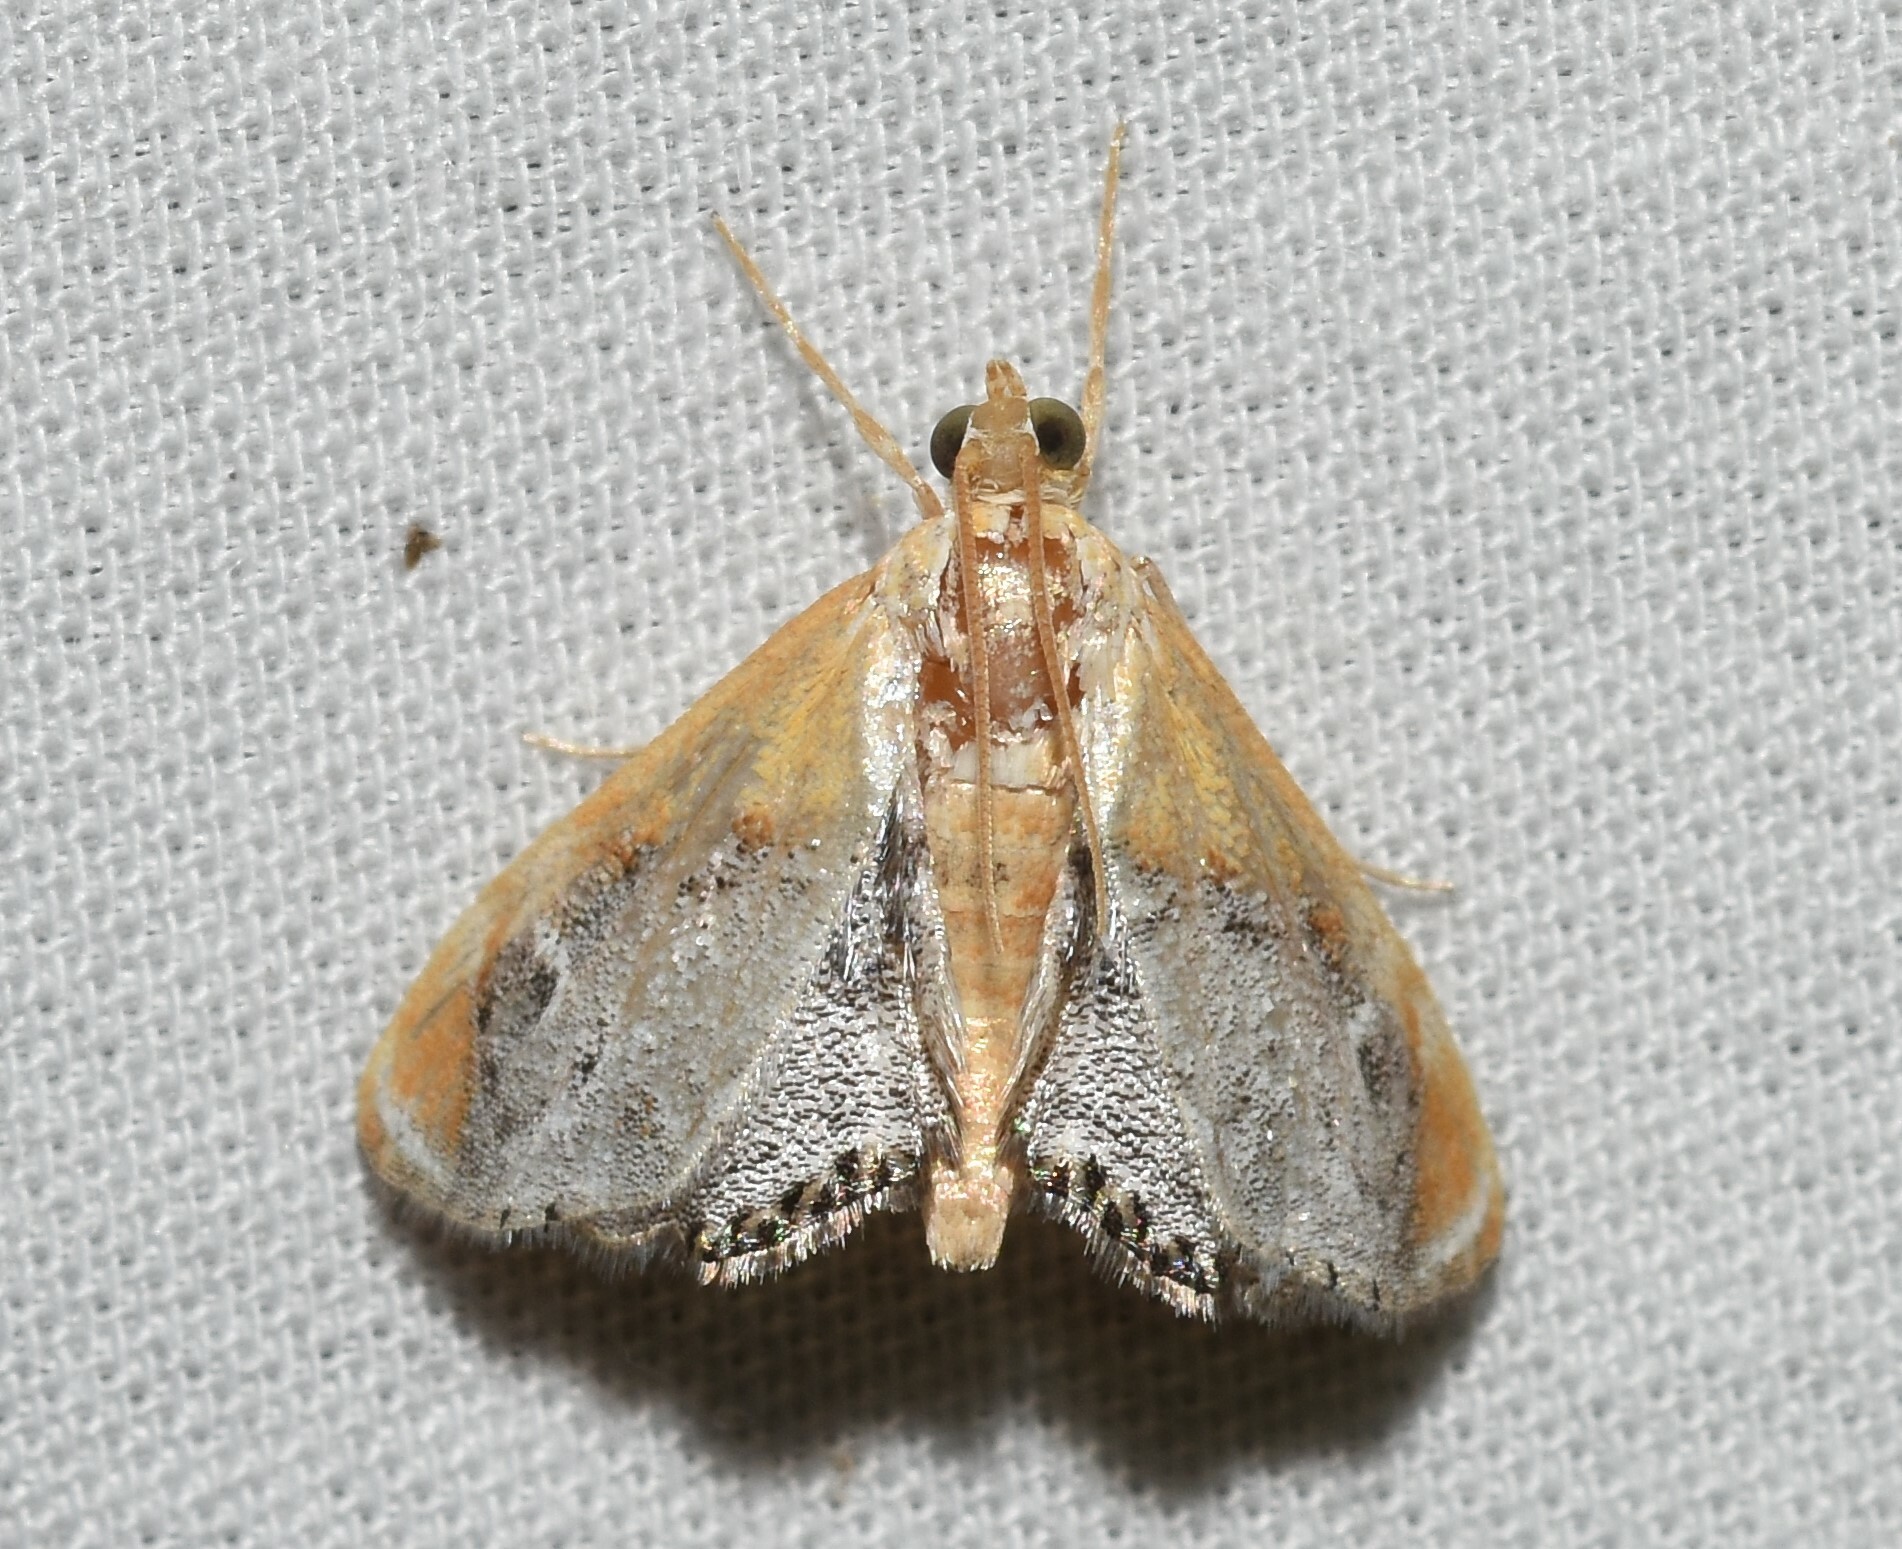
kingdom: Animalia
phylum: Arthropoda
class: Insecta
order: Lepidoptera
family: Crambidae
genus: Chalcoela
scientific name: Chalcoela iphitalis
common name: Sooty-winged chalcoela moth
